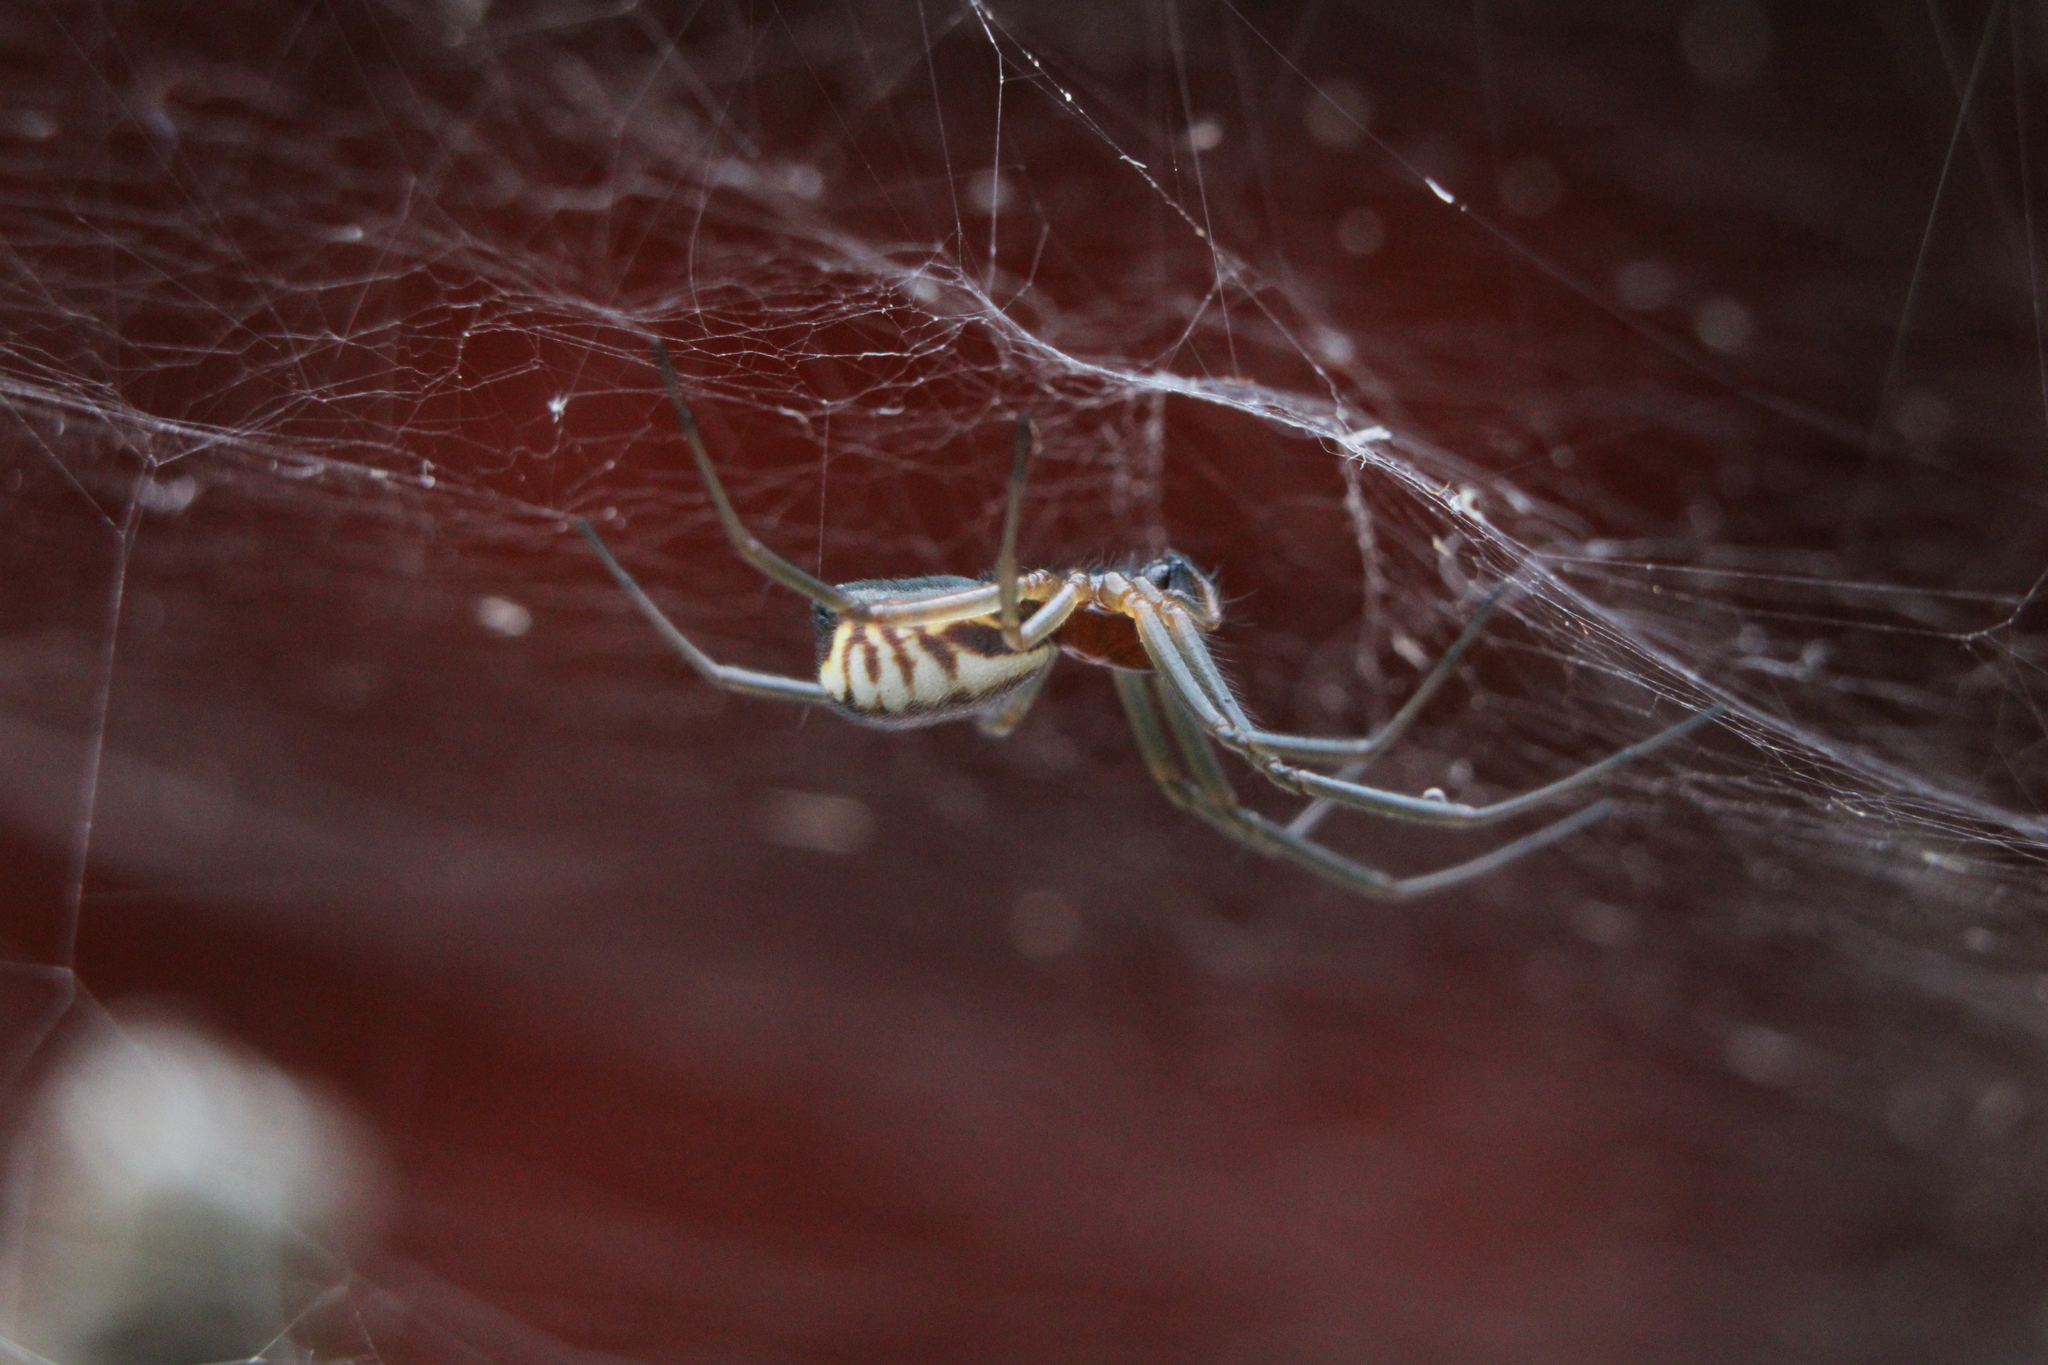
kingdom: Animalia
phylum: Arthropoda
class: Arachnida
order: Araneae
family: Linyphiidae
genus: Frontinella
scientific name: Frontinella pyramitela
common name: Bowl-and-doily spider
